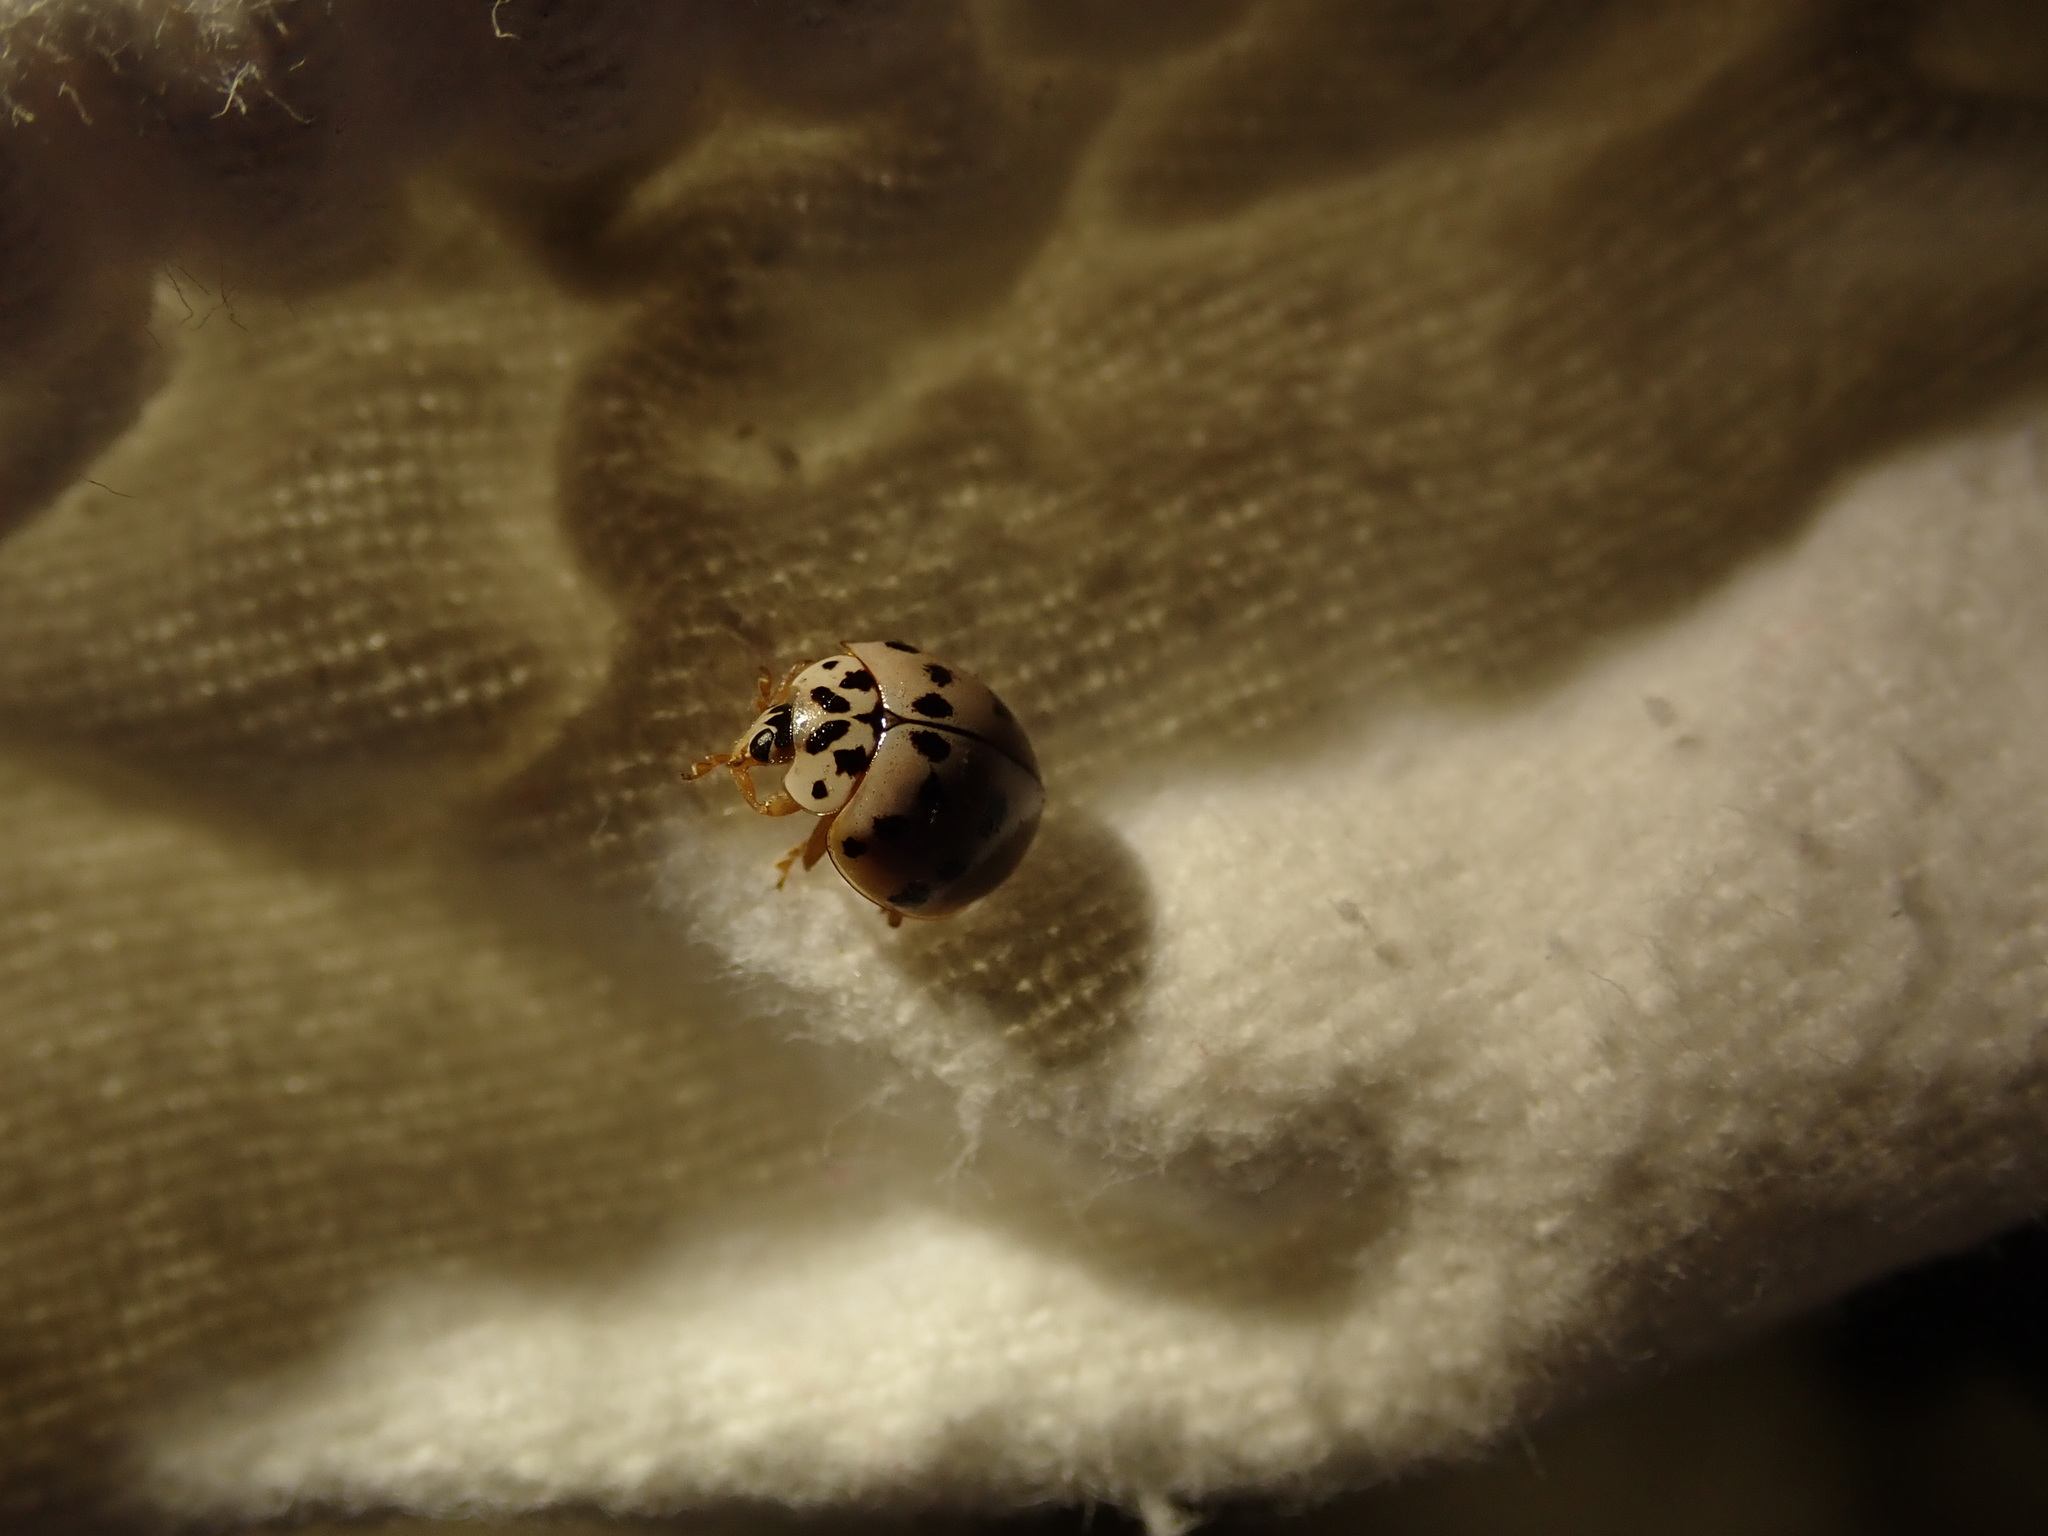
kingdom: Animalia
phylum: Arthropoda
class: Insecta
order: Coleoptera
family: Coccinellidae
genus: Olla
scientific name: Olla v-nigrum
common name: Ashy gray lady beetle
